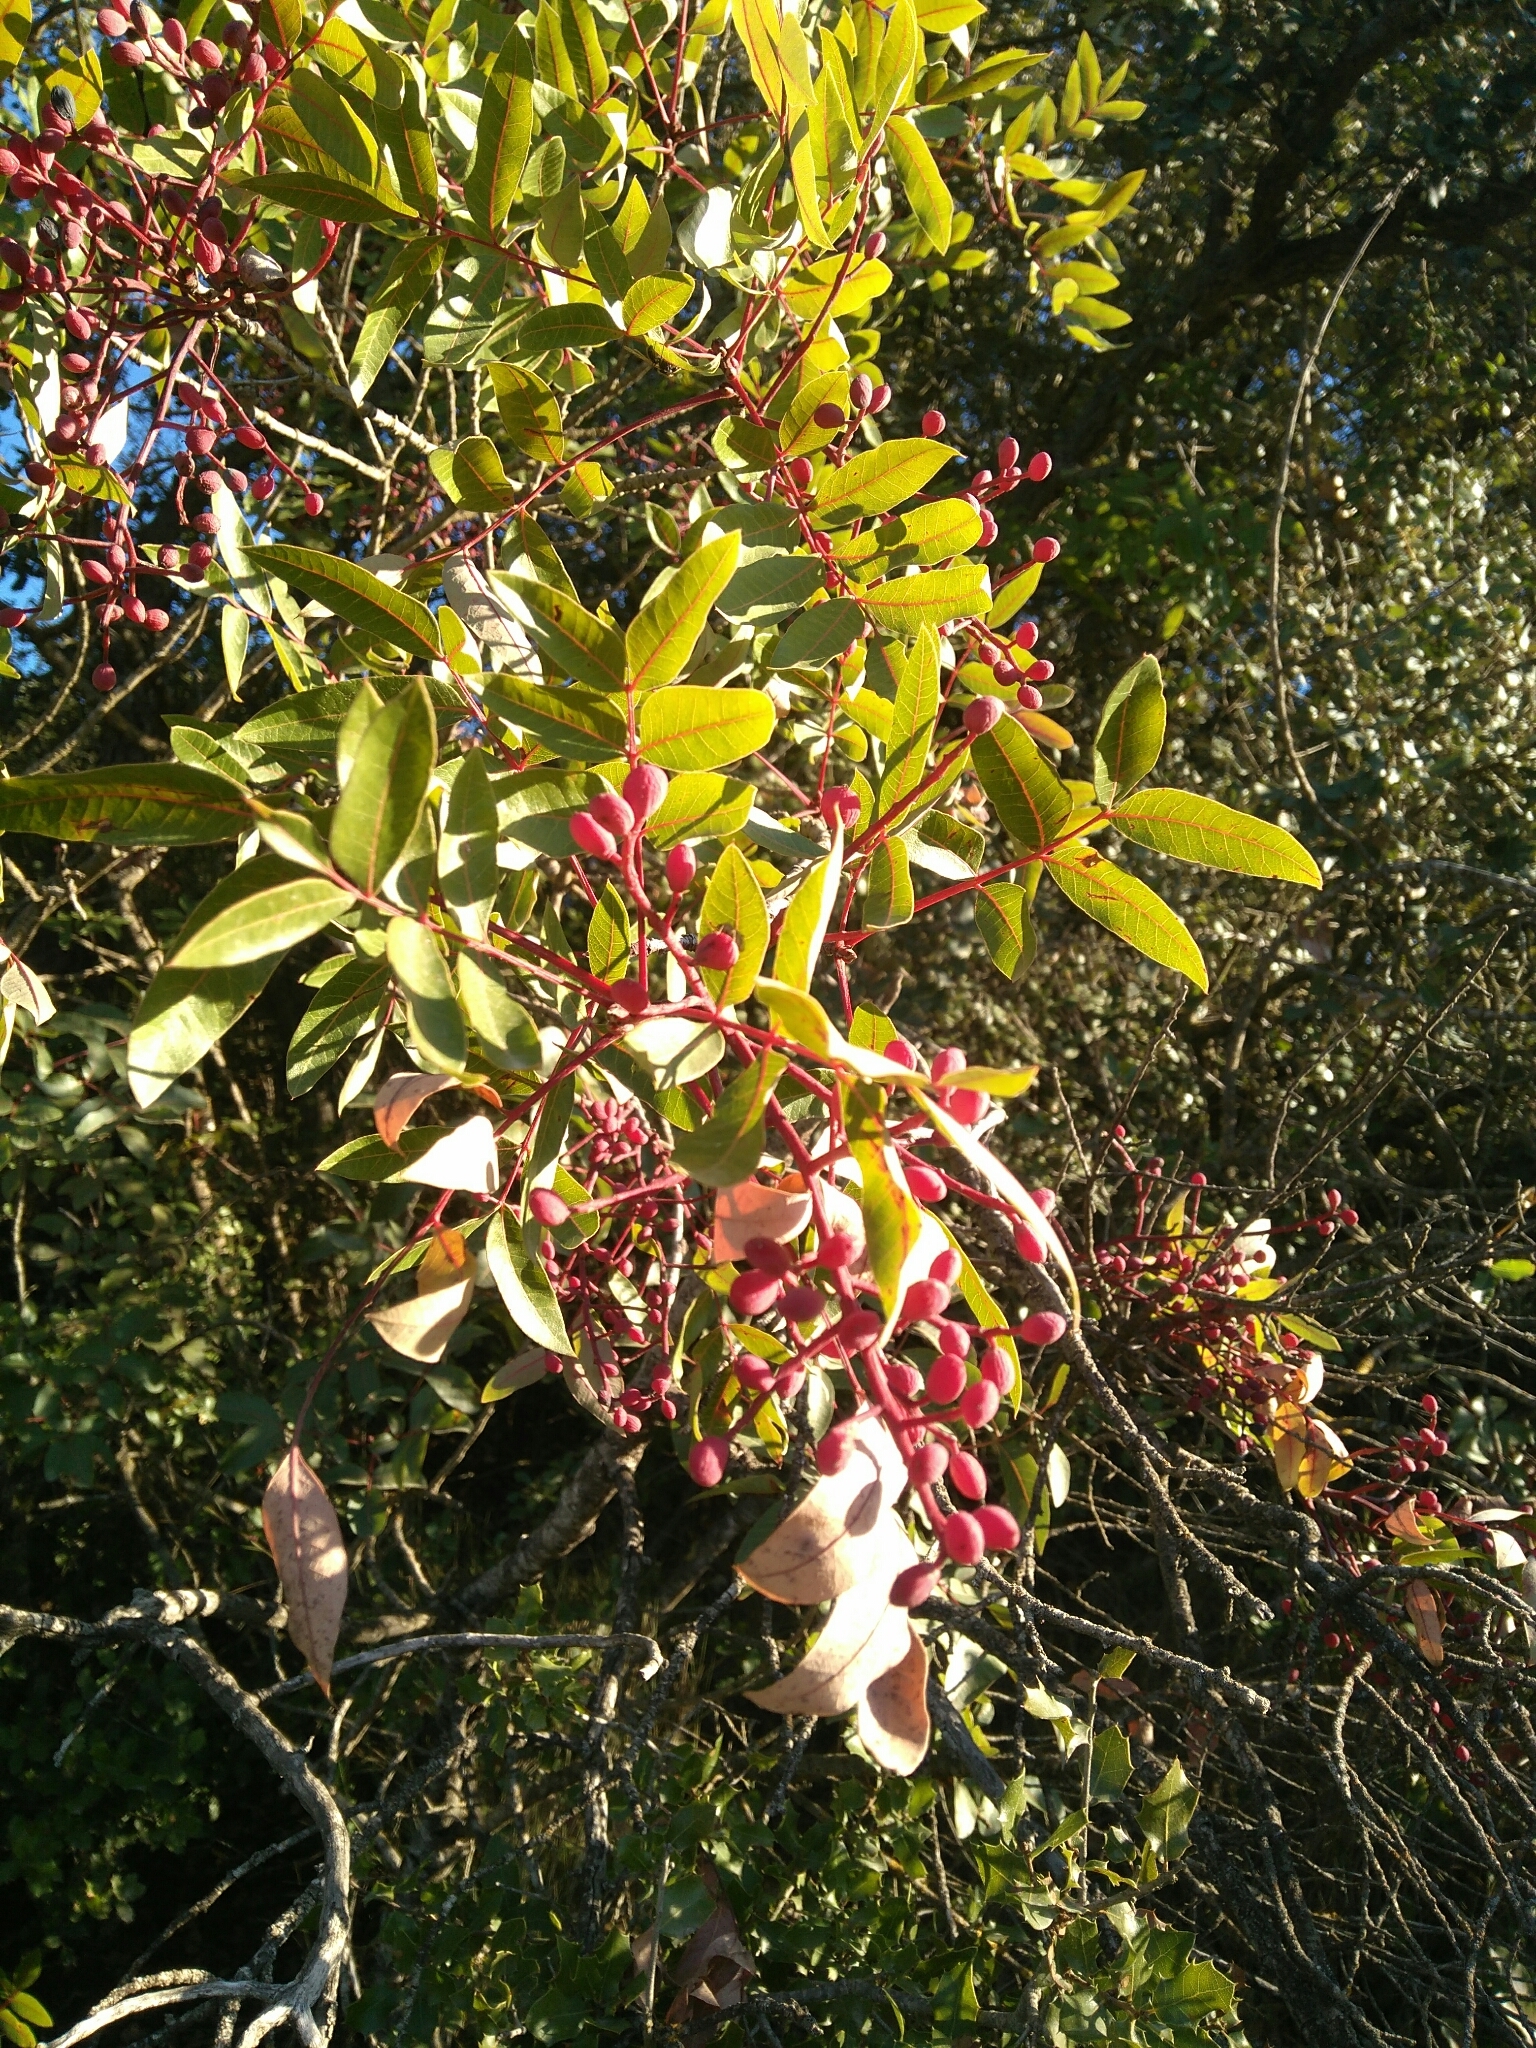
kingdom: Plantae
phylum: Tracheophyta
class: Magnoliopsida
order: Sapindales
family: Anacardiaceae
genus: Pistacia
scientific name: Pistacia terebinthus
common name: Terebinth
